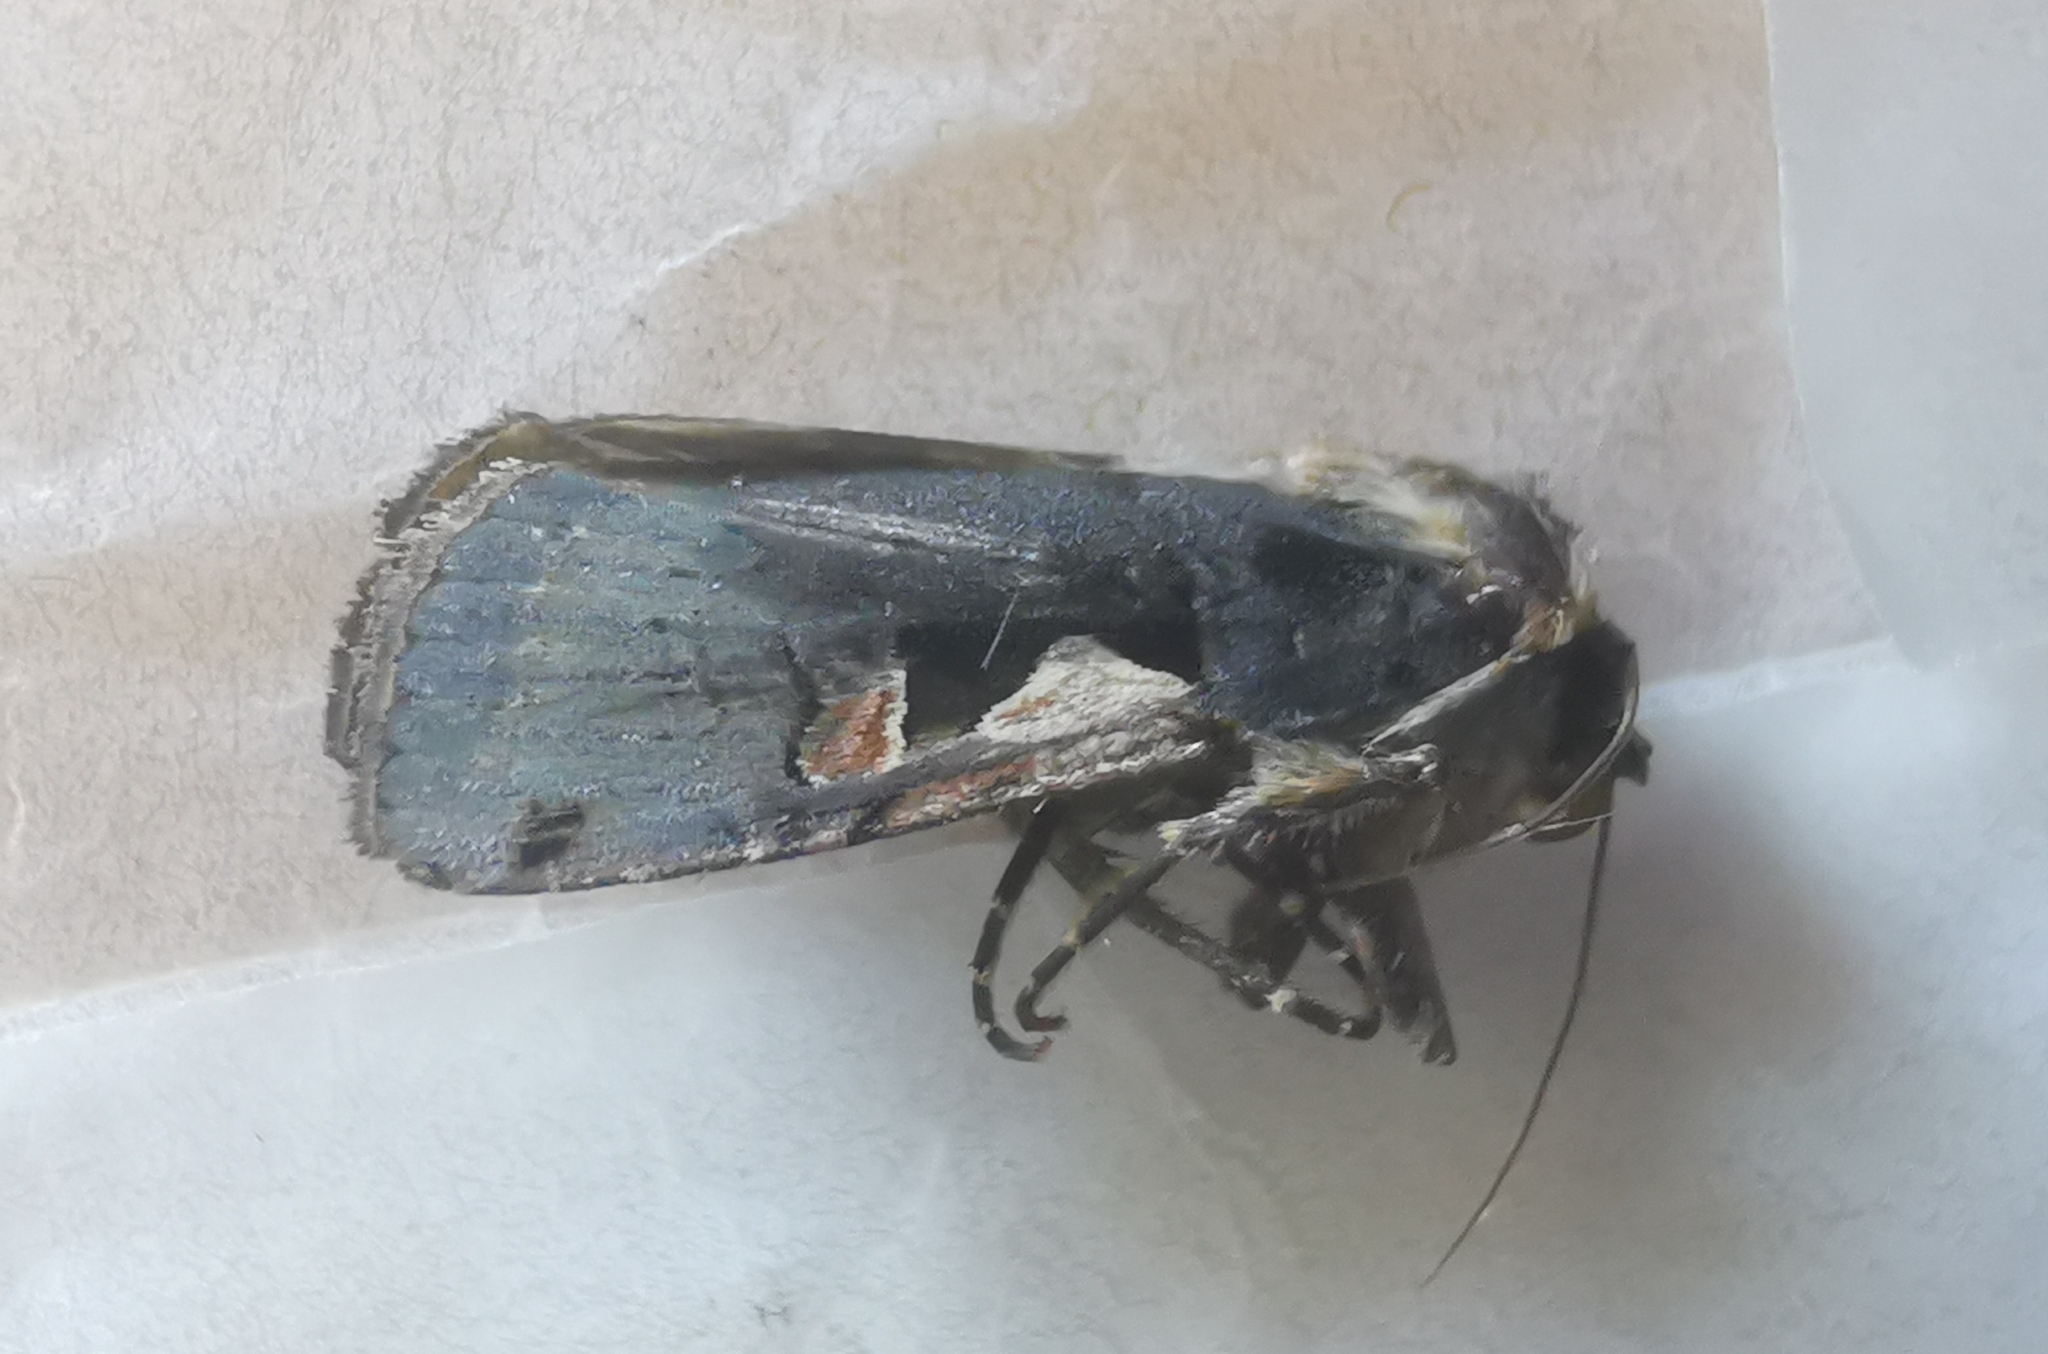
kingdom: Animalia
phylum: Arthropoda
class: Insecta
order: Lepidoptera
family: Noctuidae
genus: Xestia
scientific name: Xestia c-nigrum
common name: Setaceous hebrew character
